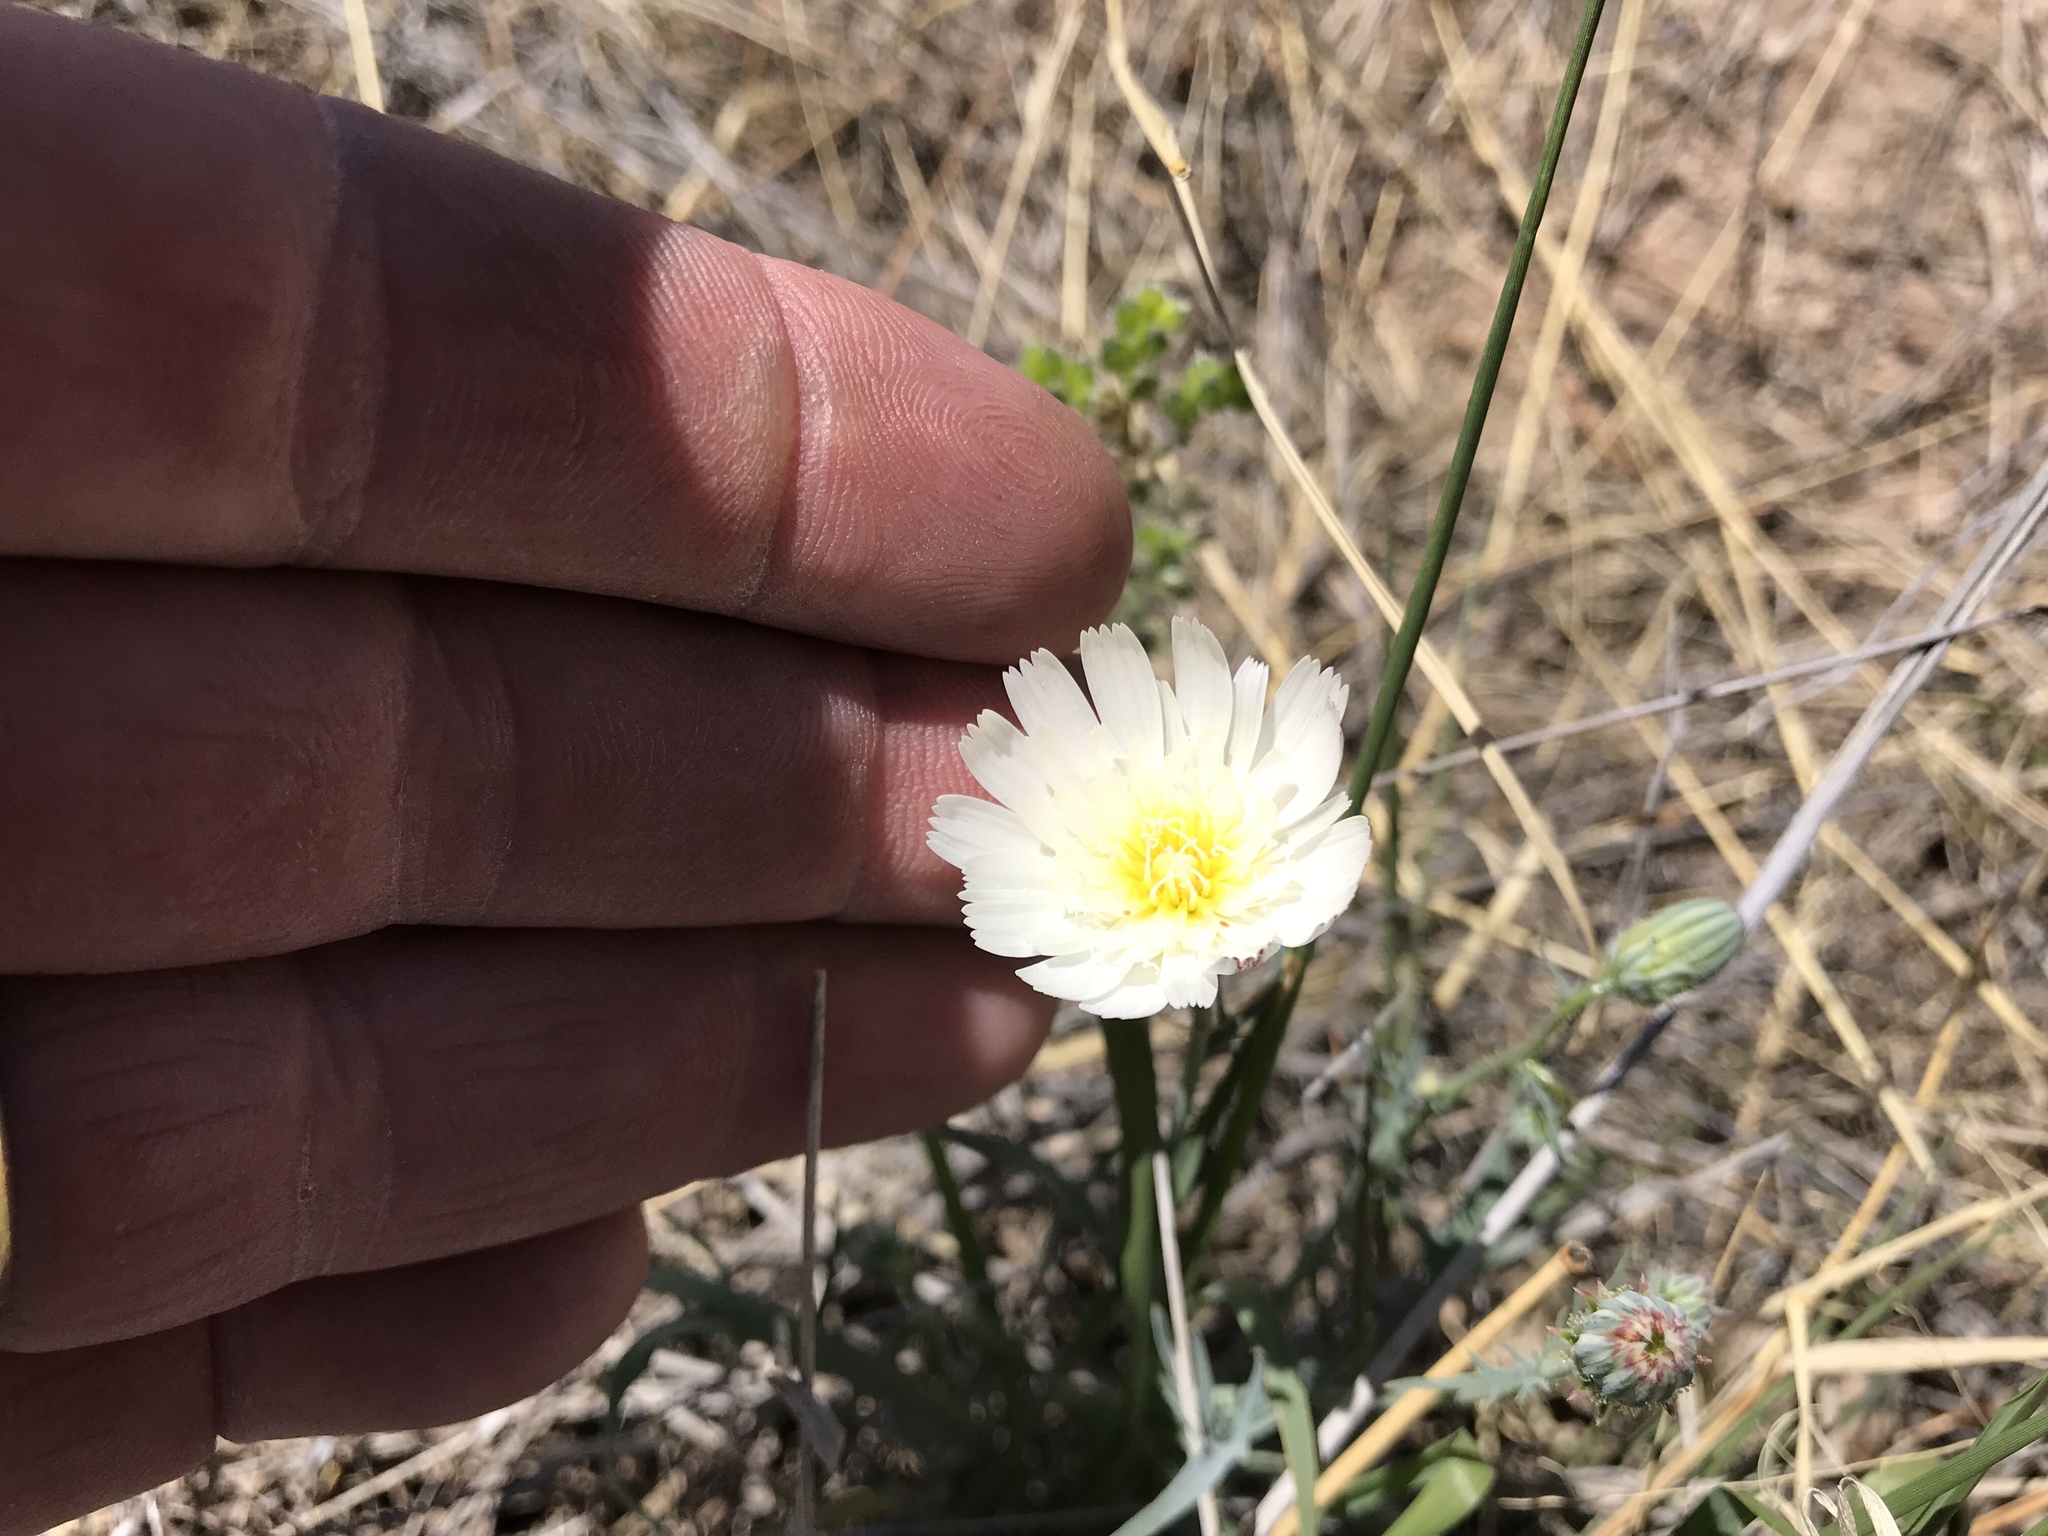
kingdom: Plantae
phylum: Tracheophyta
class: Magnoliopsida
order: Asterales
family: Asteraceae
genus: Calycoseris
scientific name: Calycoseris wrightii
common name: White tackstem
